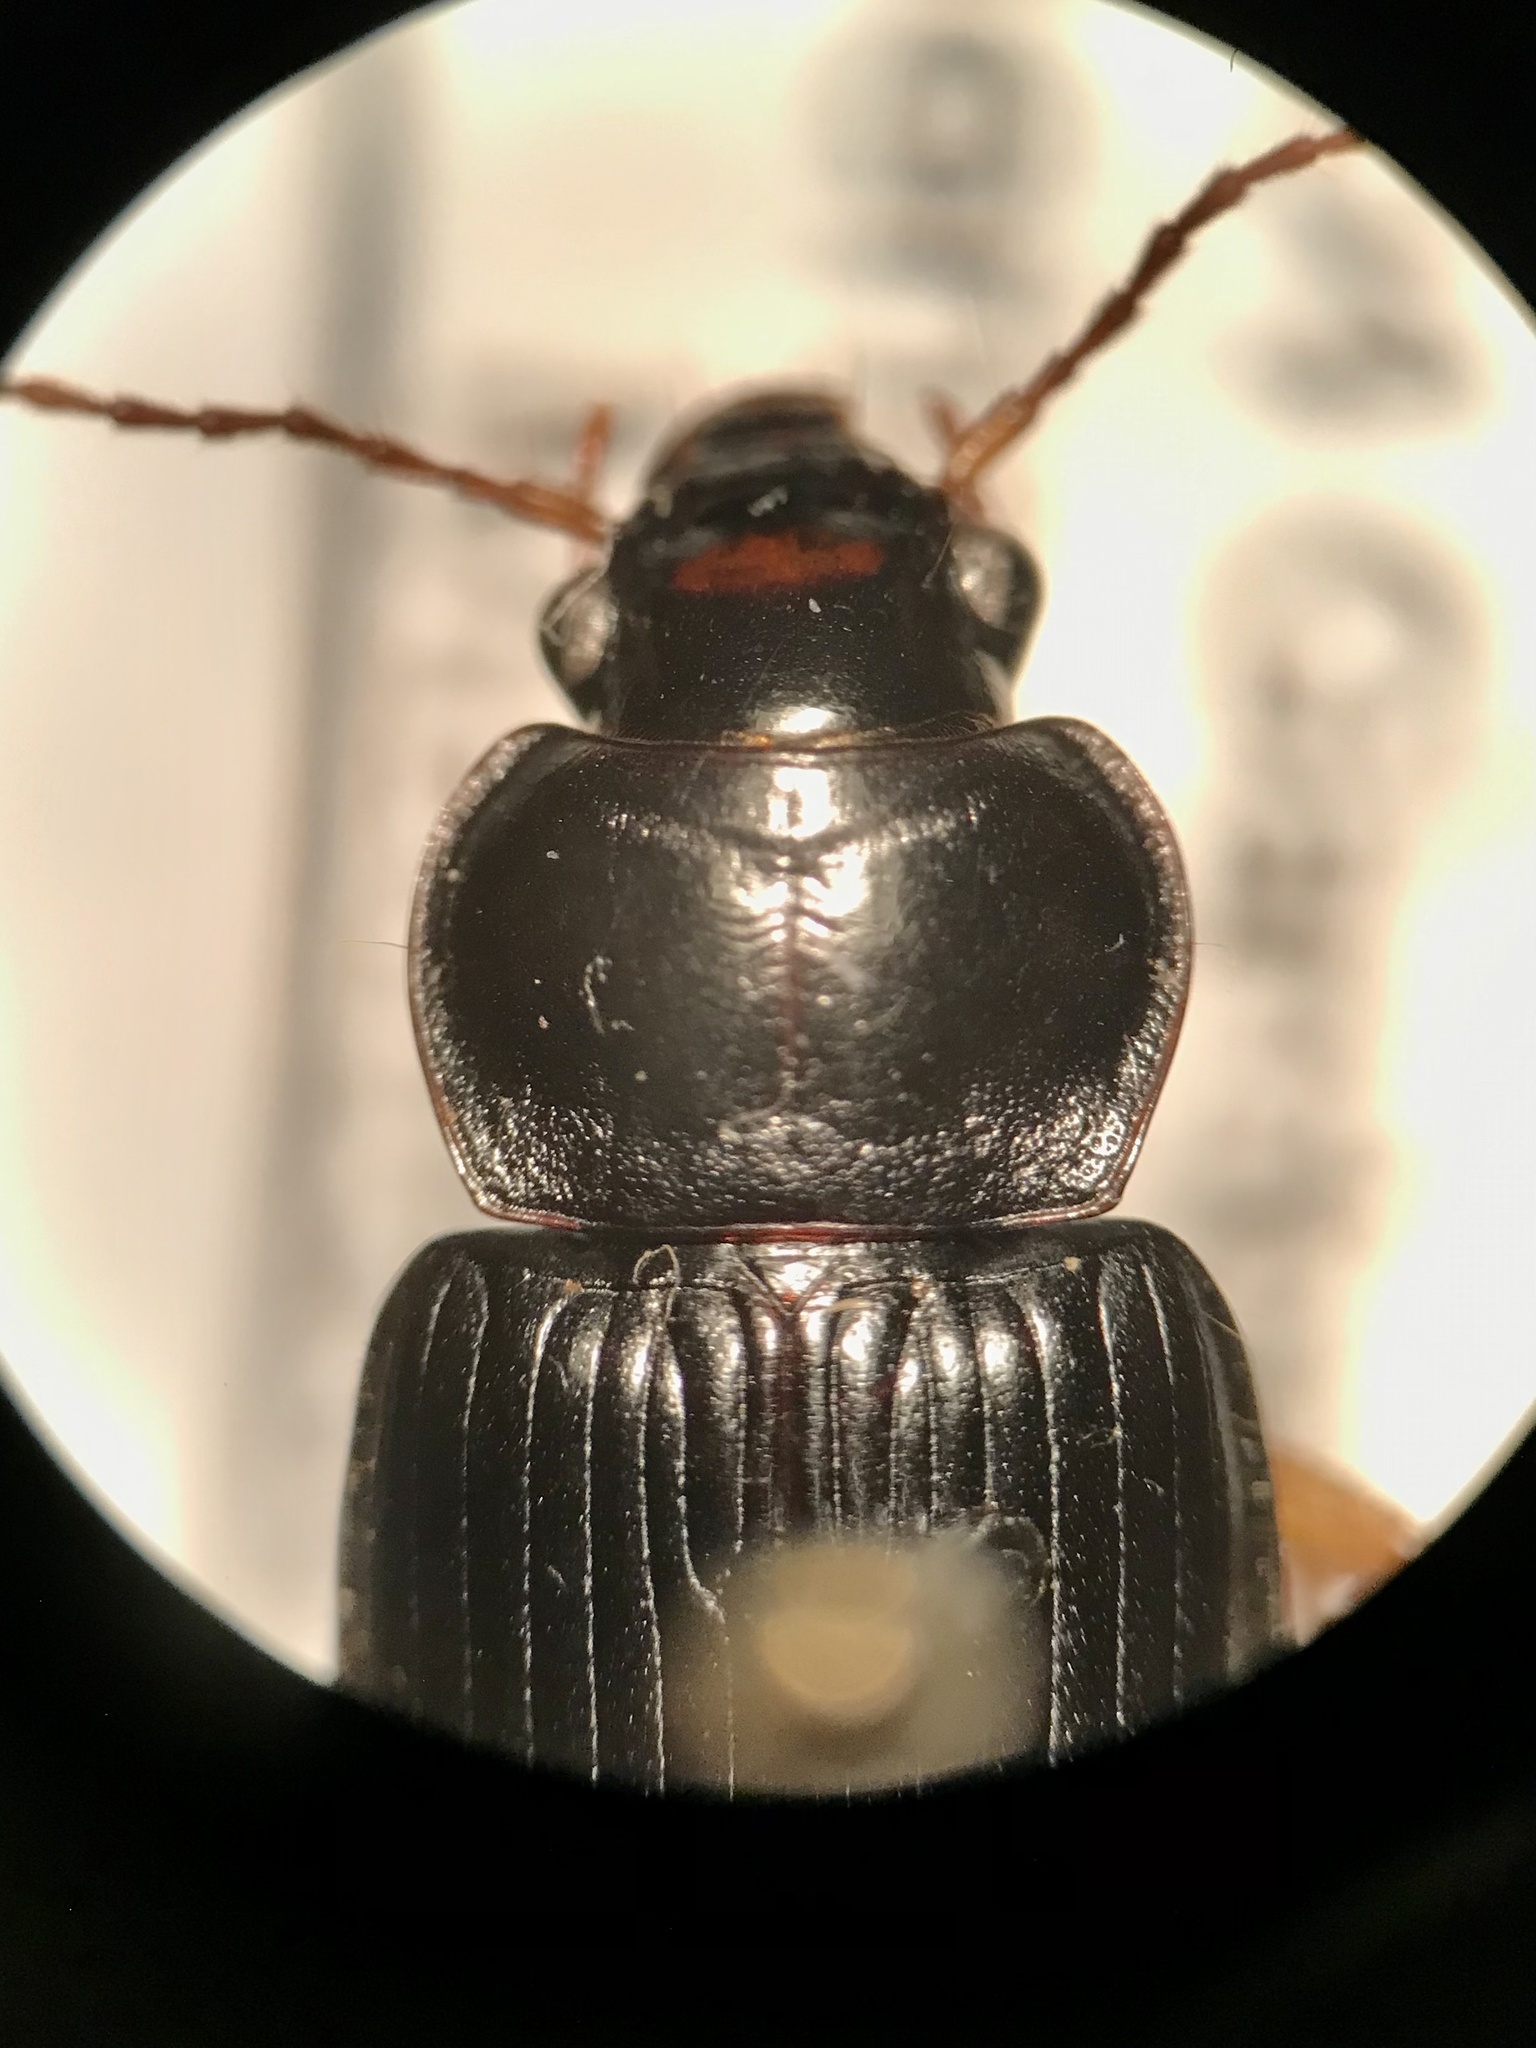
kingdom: Animalia
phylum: Arthropoda
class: Insecta
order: Coleoptera
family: Carabidae
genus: Anisodactylus
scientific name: Anisodactylus verticalis
